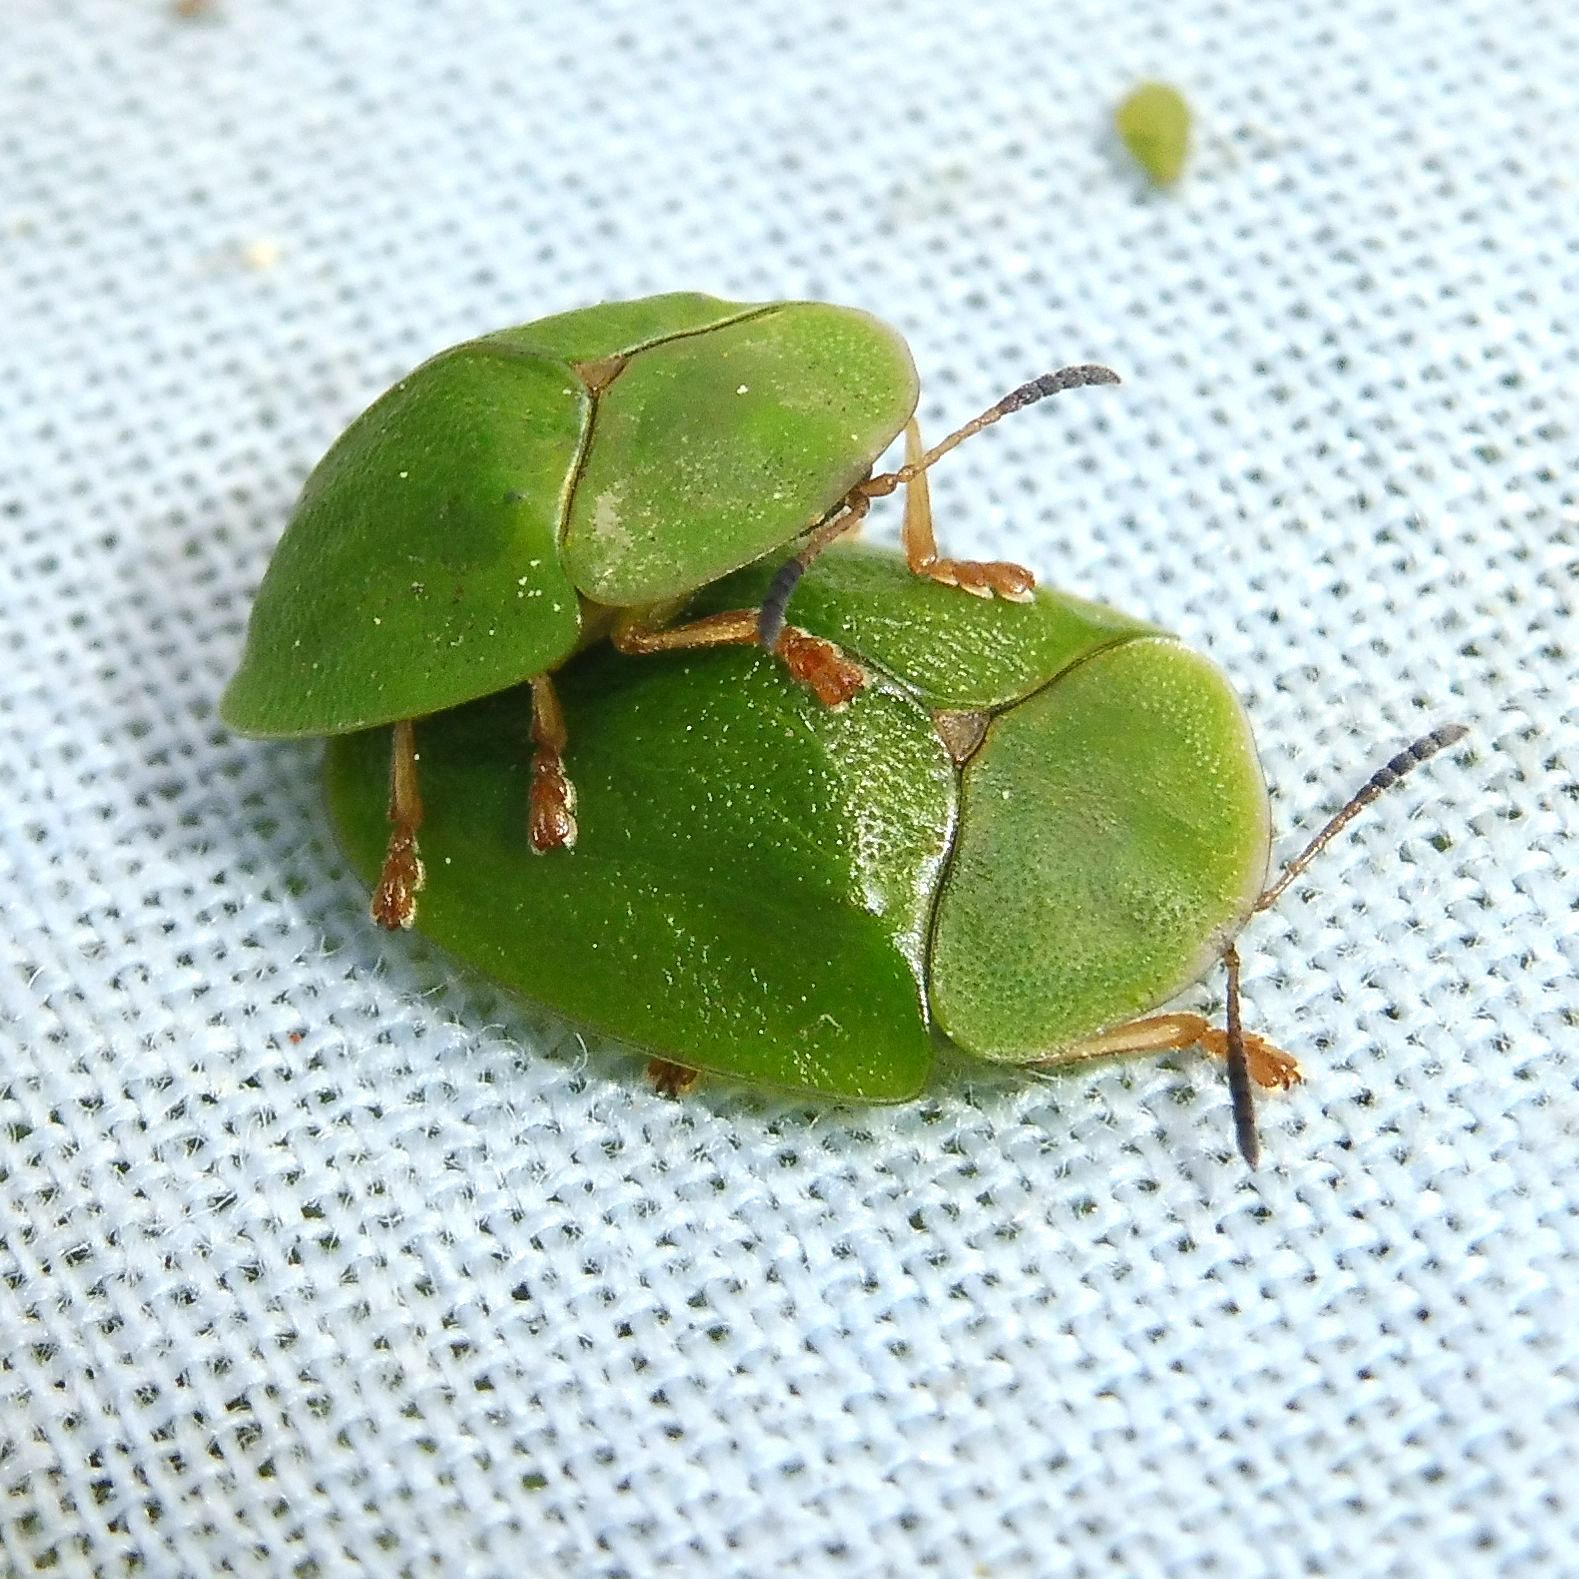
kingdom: Animalia
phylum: Arthropoda
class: Insecta
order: Coleoptera
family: Chrysomelidae
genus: Cassida
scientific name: Cassida viridis
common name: Green tortoise beetle
